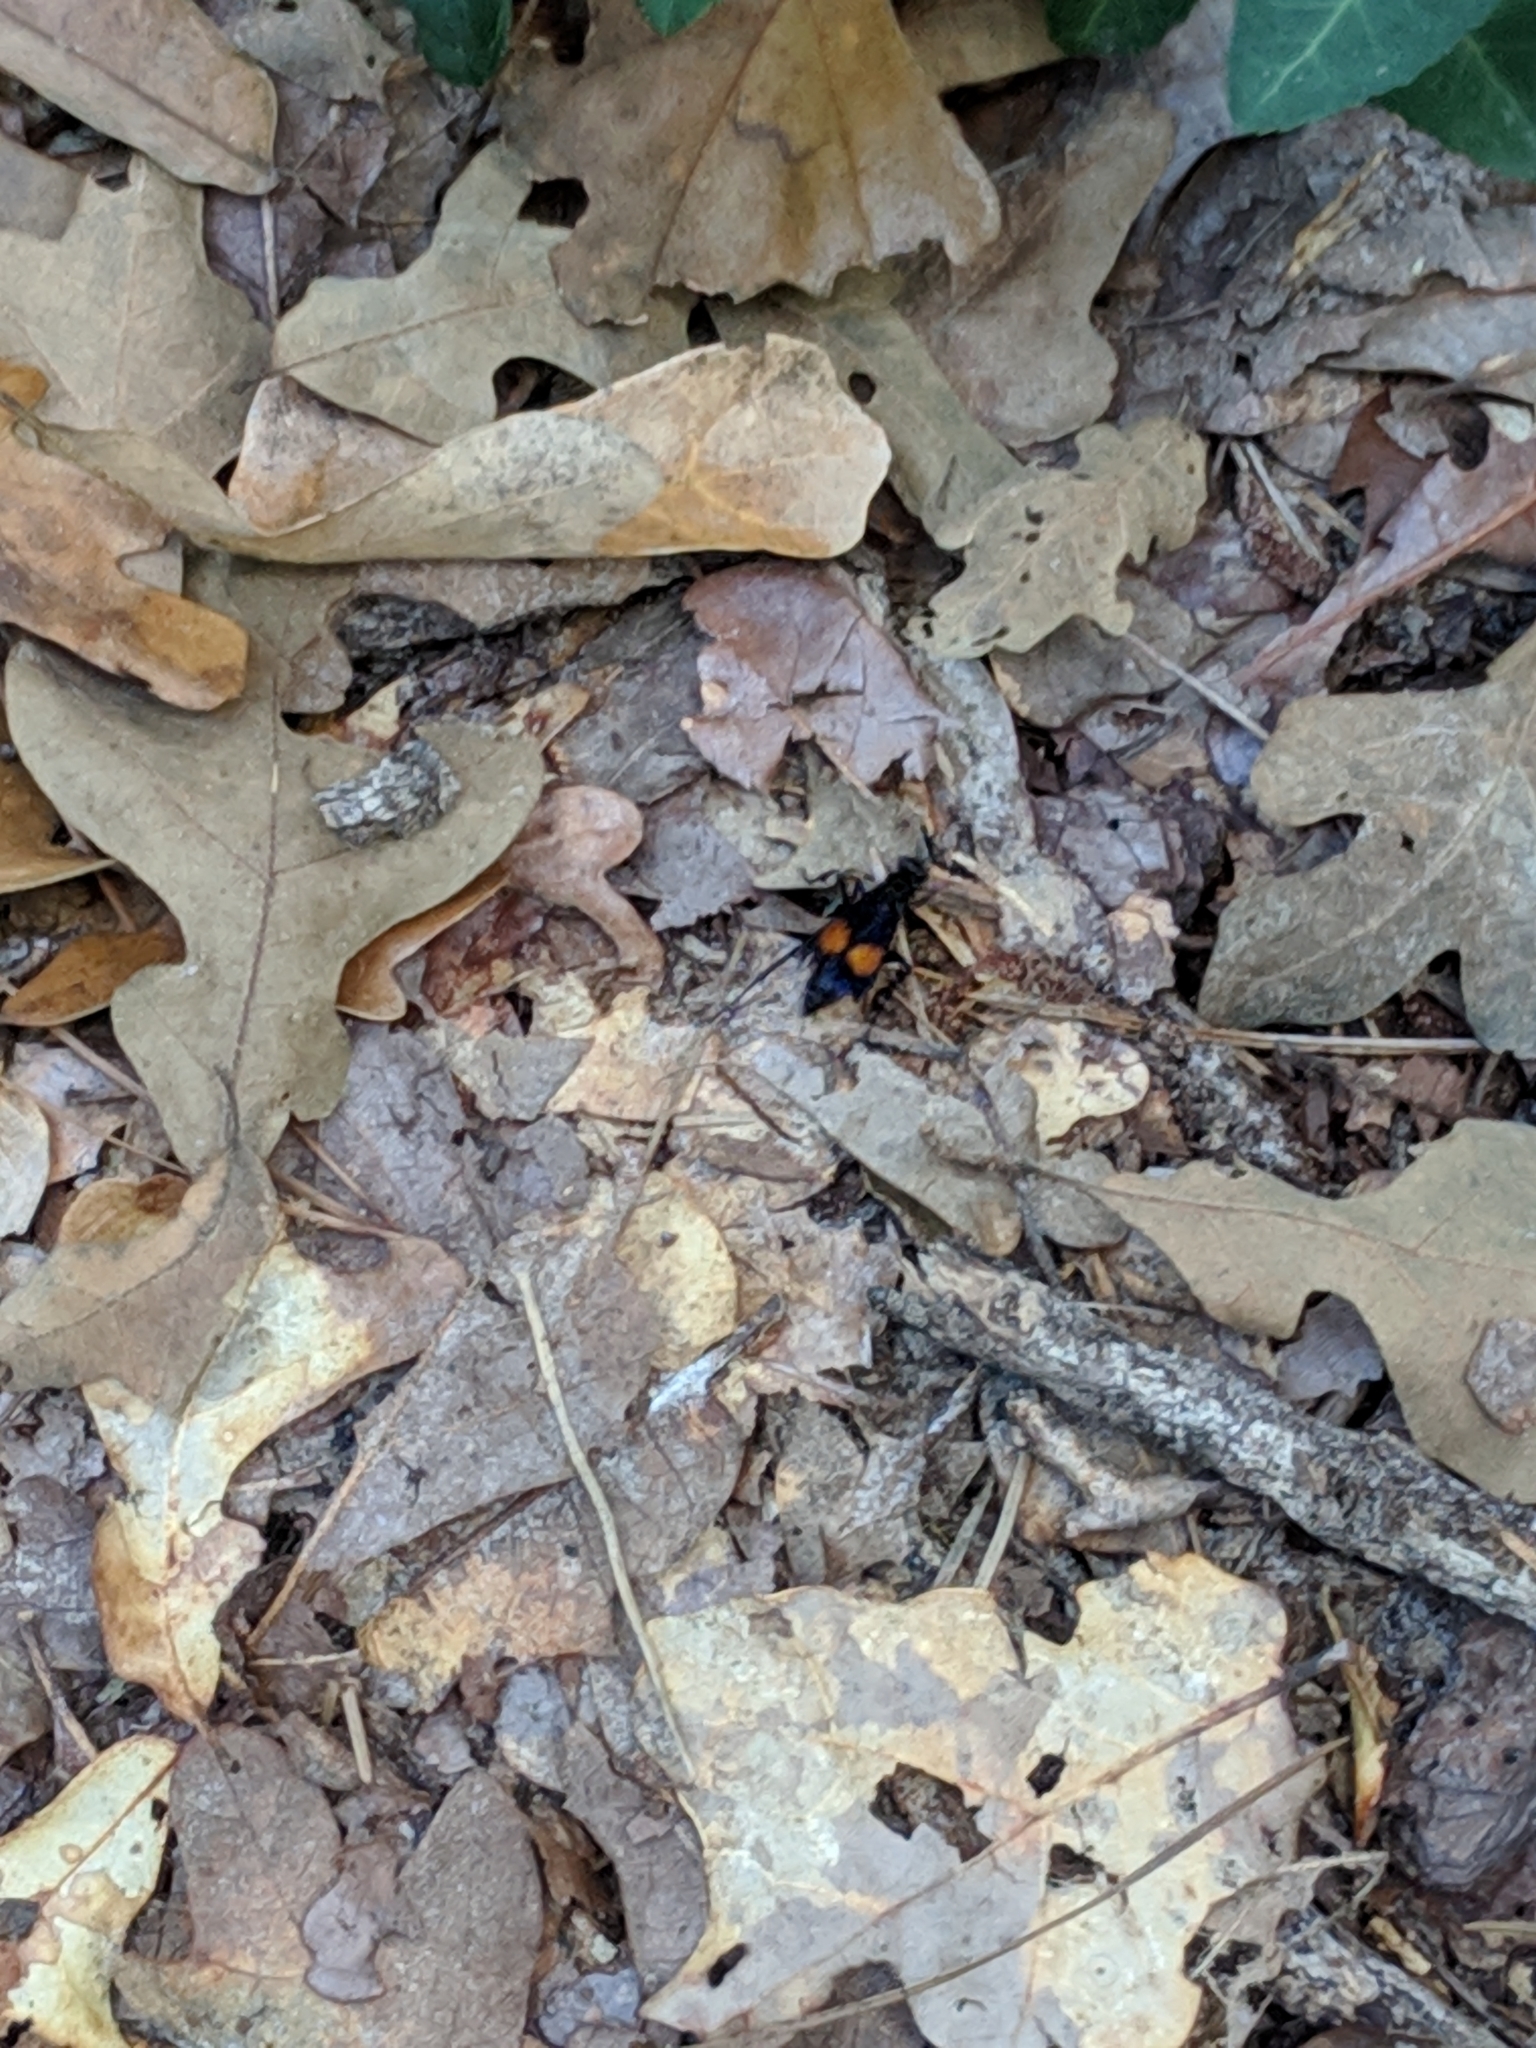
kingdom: Animalia
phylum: Arthropoda
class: Insecta
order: Hymenoptera
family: Pompilidae
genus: Chirodamus
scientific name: Chirodamus maculipennis
